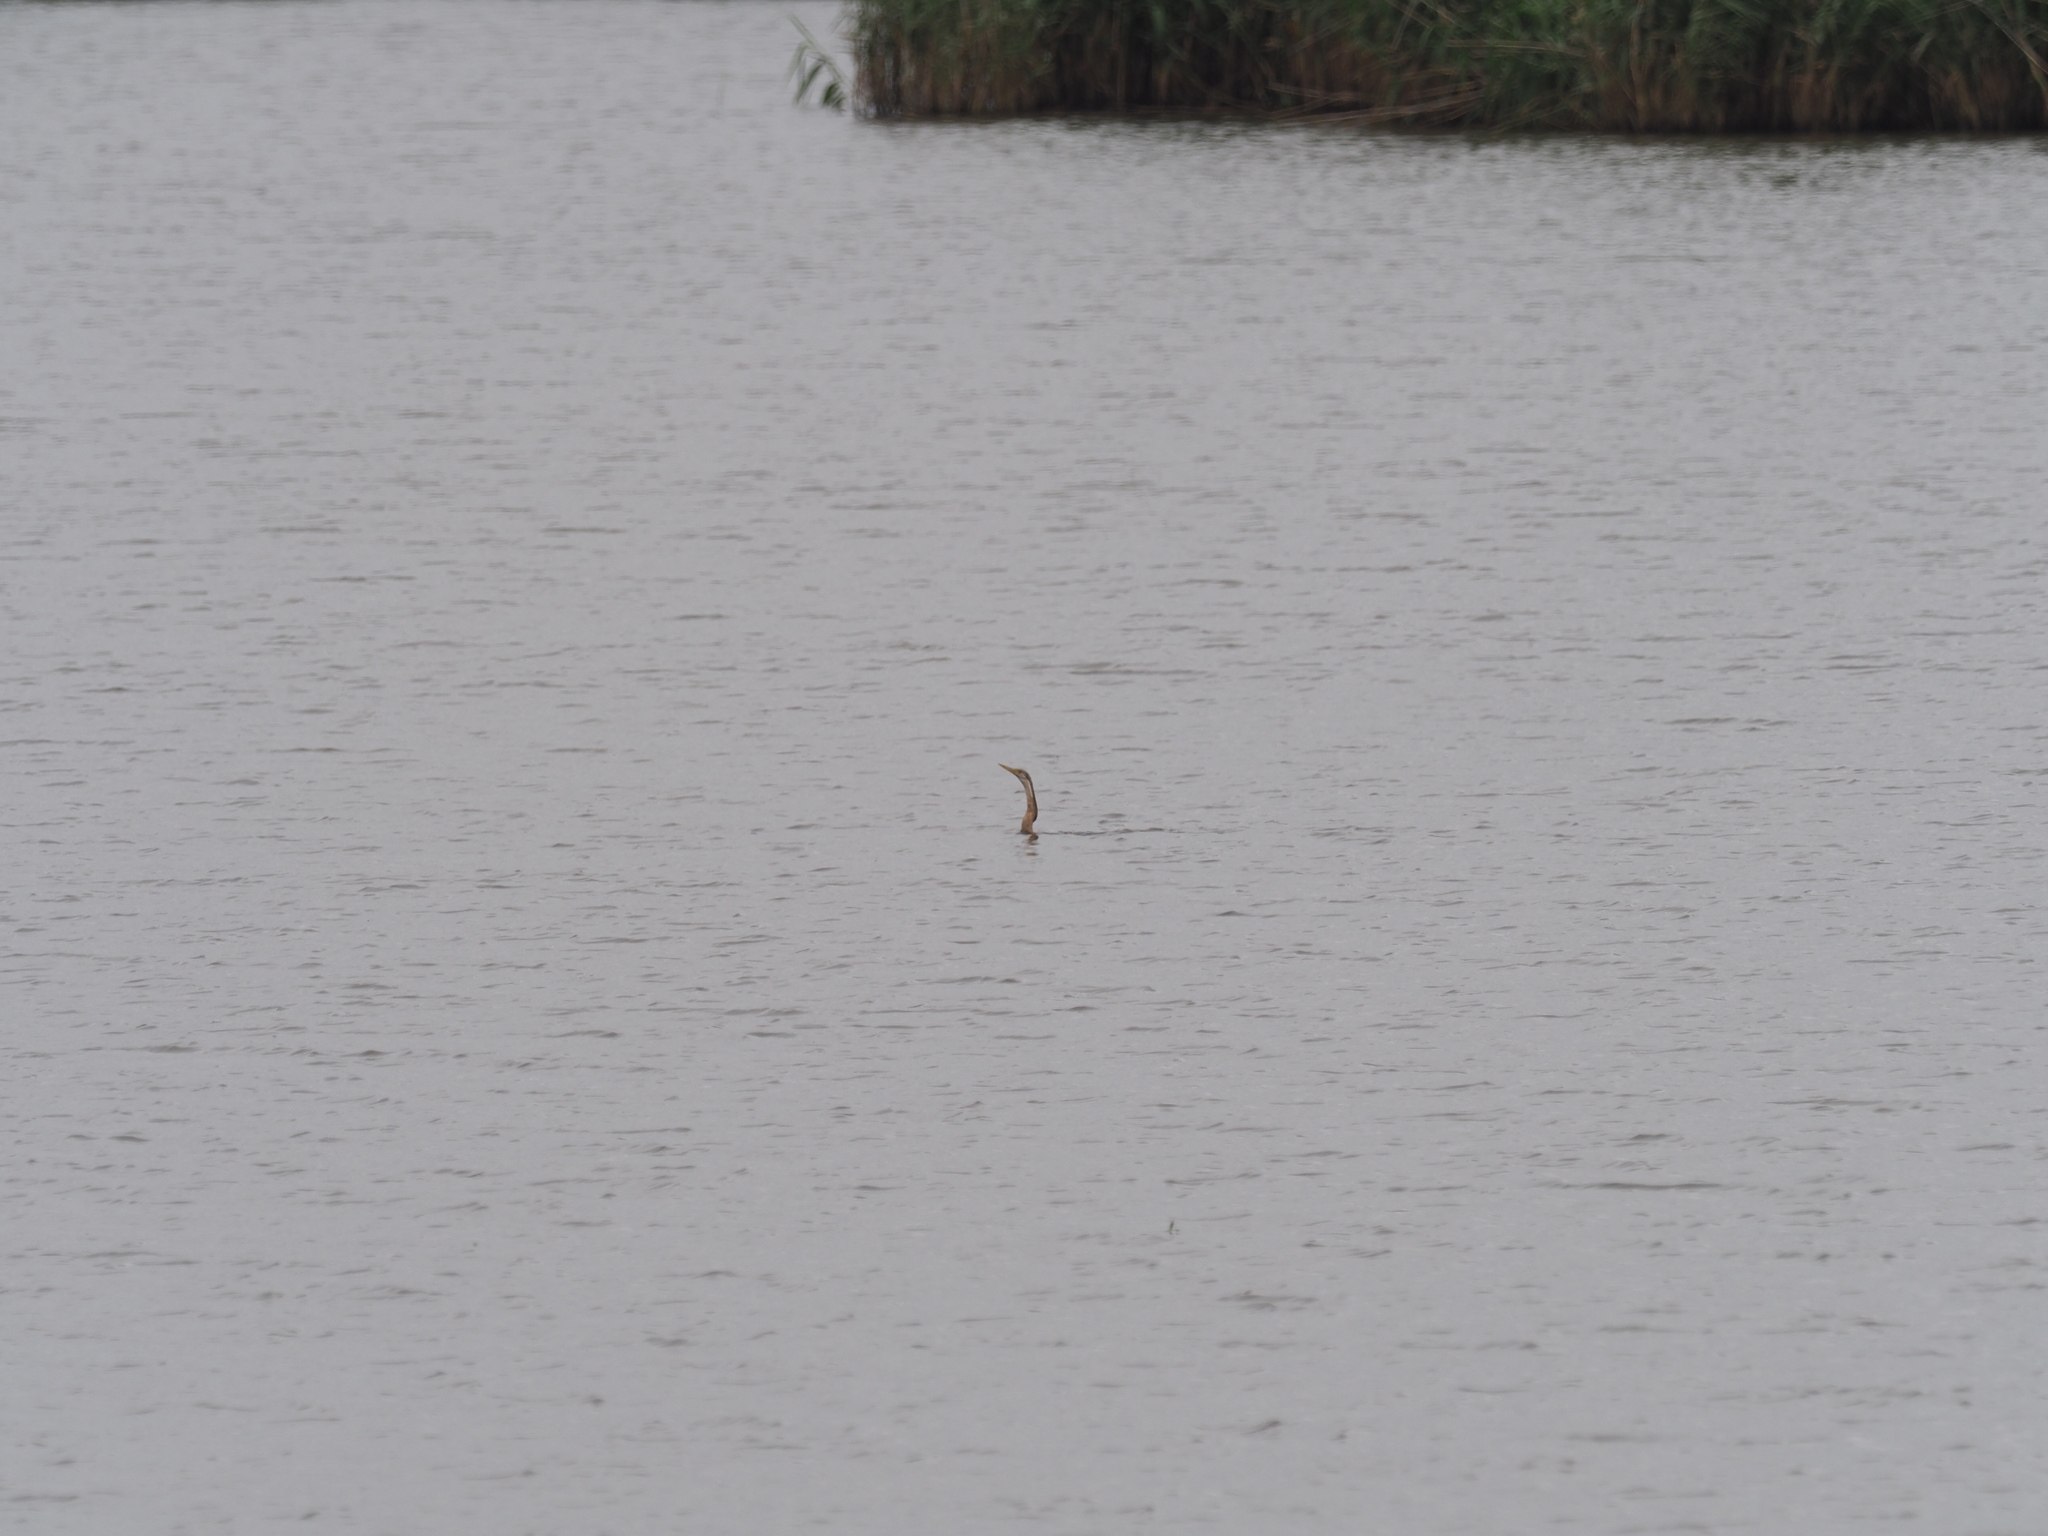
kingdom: Animalia
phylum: Chordata
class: Aves
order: Suliformes
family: Anhingidae
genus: Anhinga
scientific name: Anhinga rufa
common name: African darter
